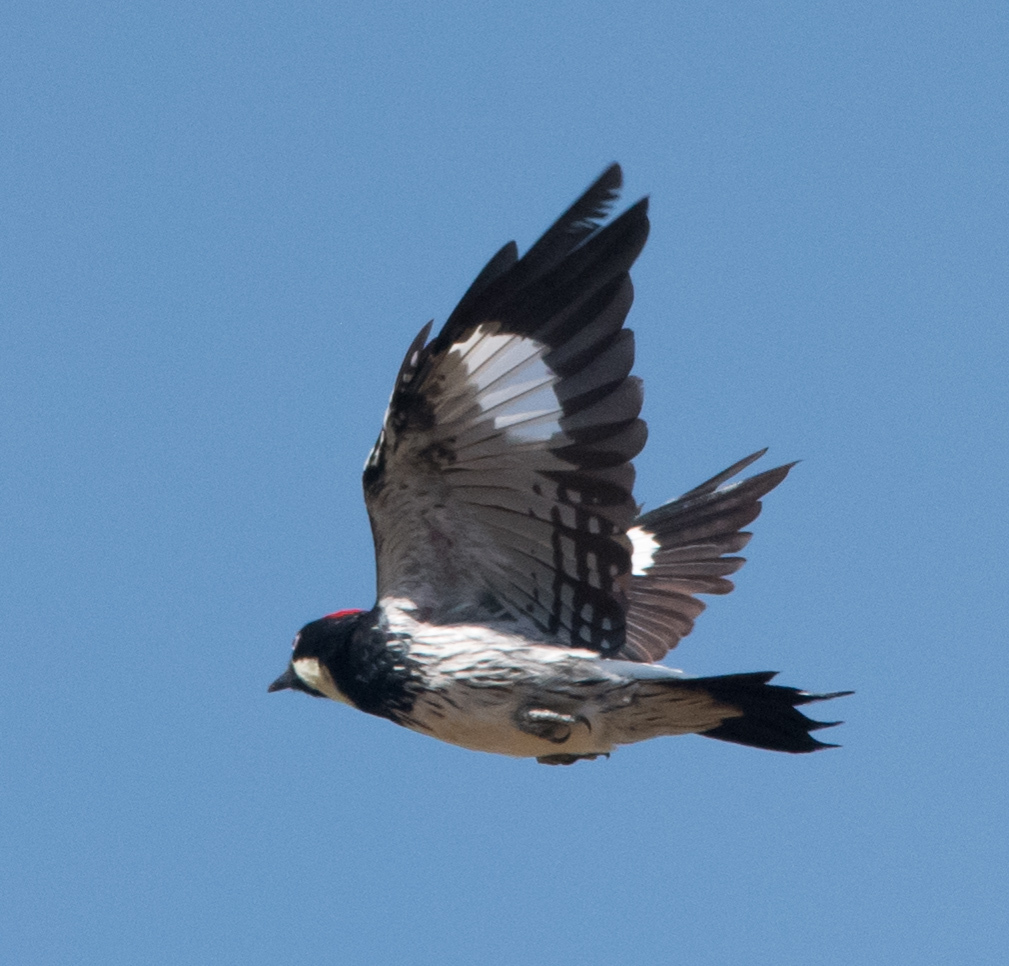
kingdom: Animalia
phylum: Chordata
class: Aves
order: Piciformes
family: Picidae
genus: Melanerpes
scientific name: Melanerpes formicivorus
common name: Acorn woodpecker
